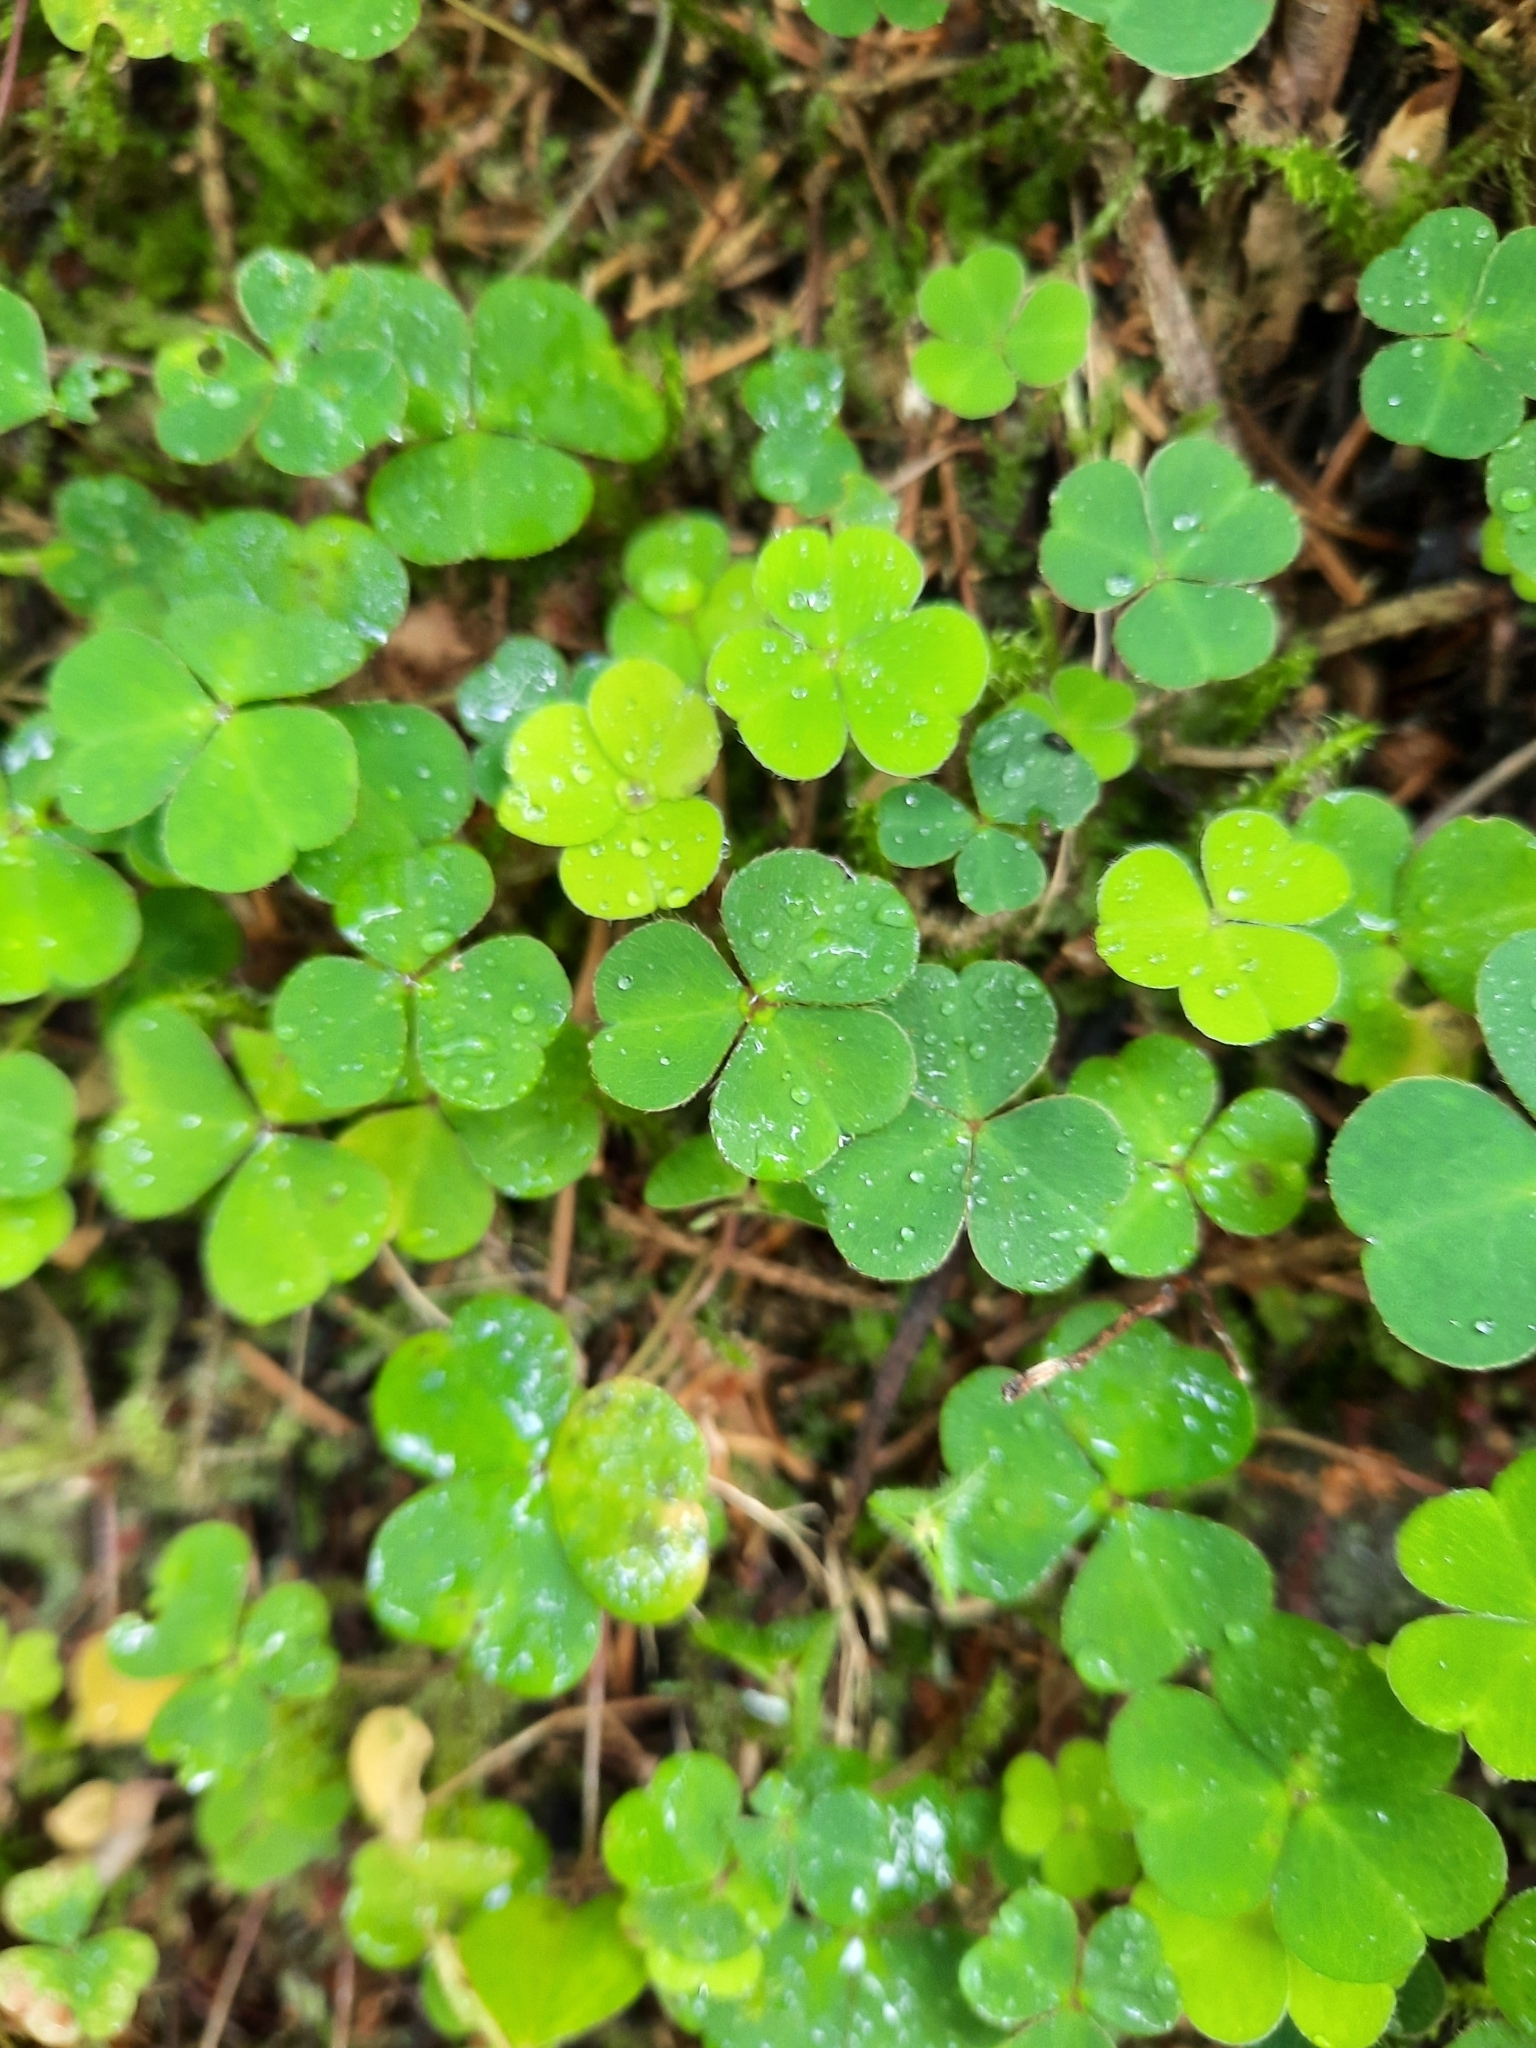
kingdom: Plantae
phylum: Tracheophyta
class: Magnoliopsida
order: Oxalidales
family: Oxalidaceae
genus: Oxalis
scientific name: Oxalis acetosella
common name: Wood-sorrel
